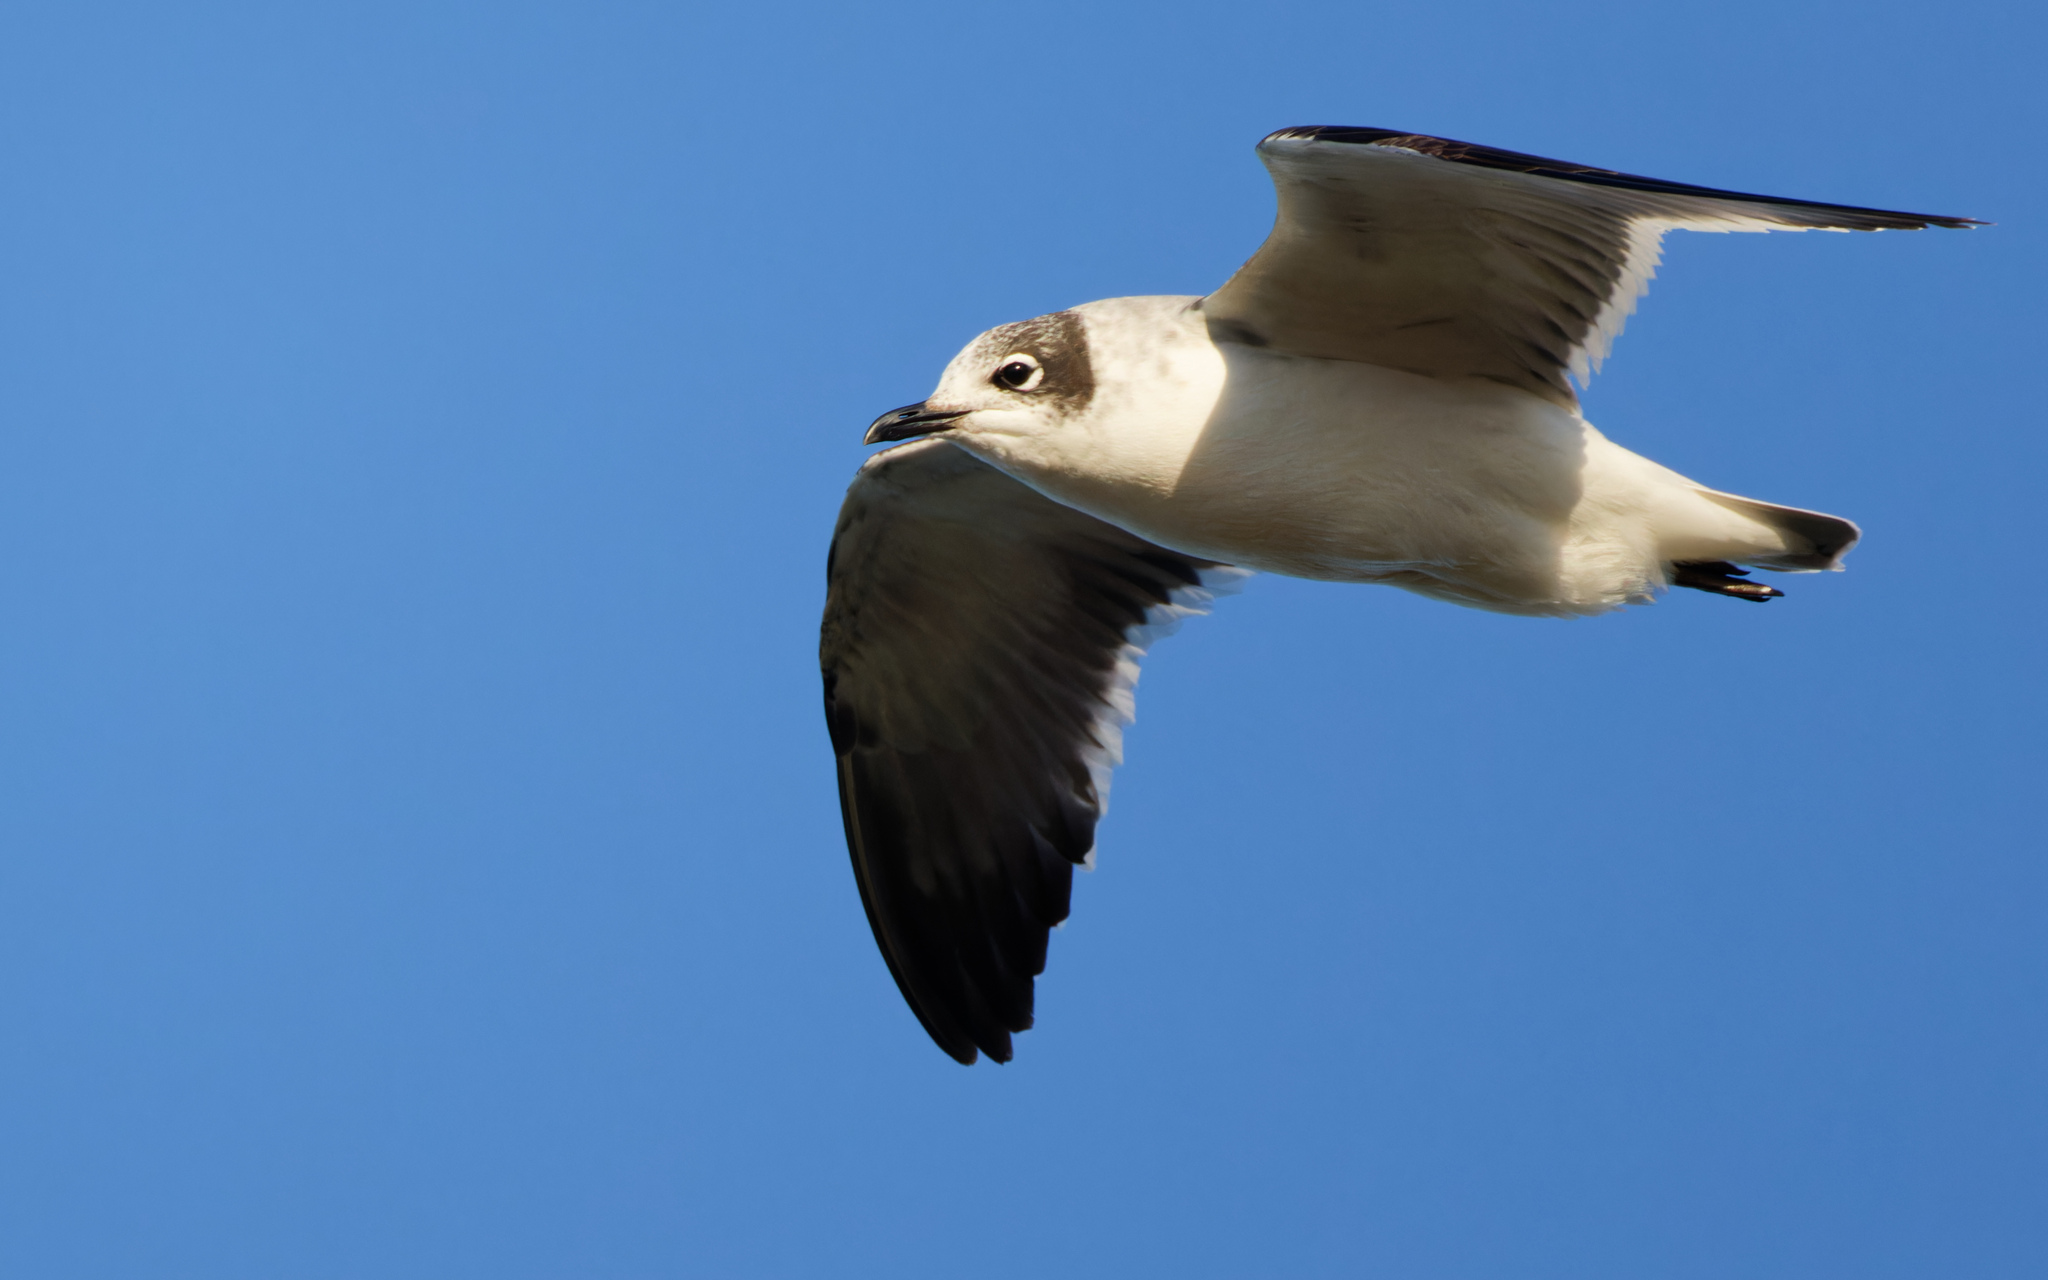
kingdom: Animalia
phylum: Chordata
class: Aves
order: Charadriiformes
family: Laridae
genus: Leucophaeus
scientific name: Leucophaeus pipixcan
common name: Franklin's gull
